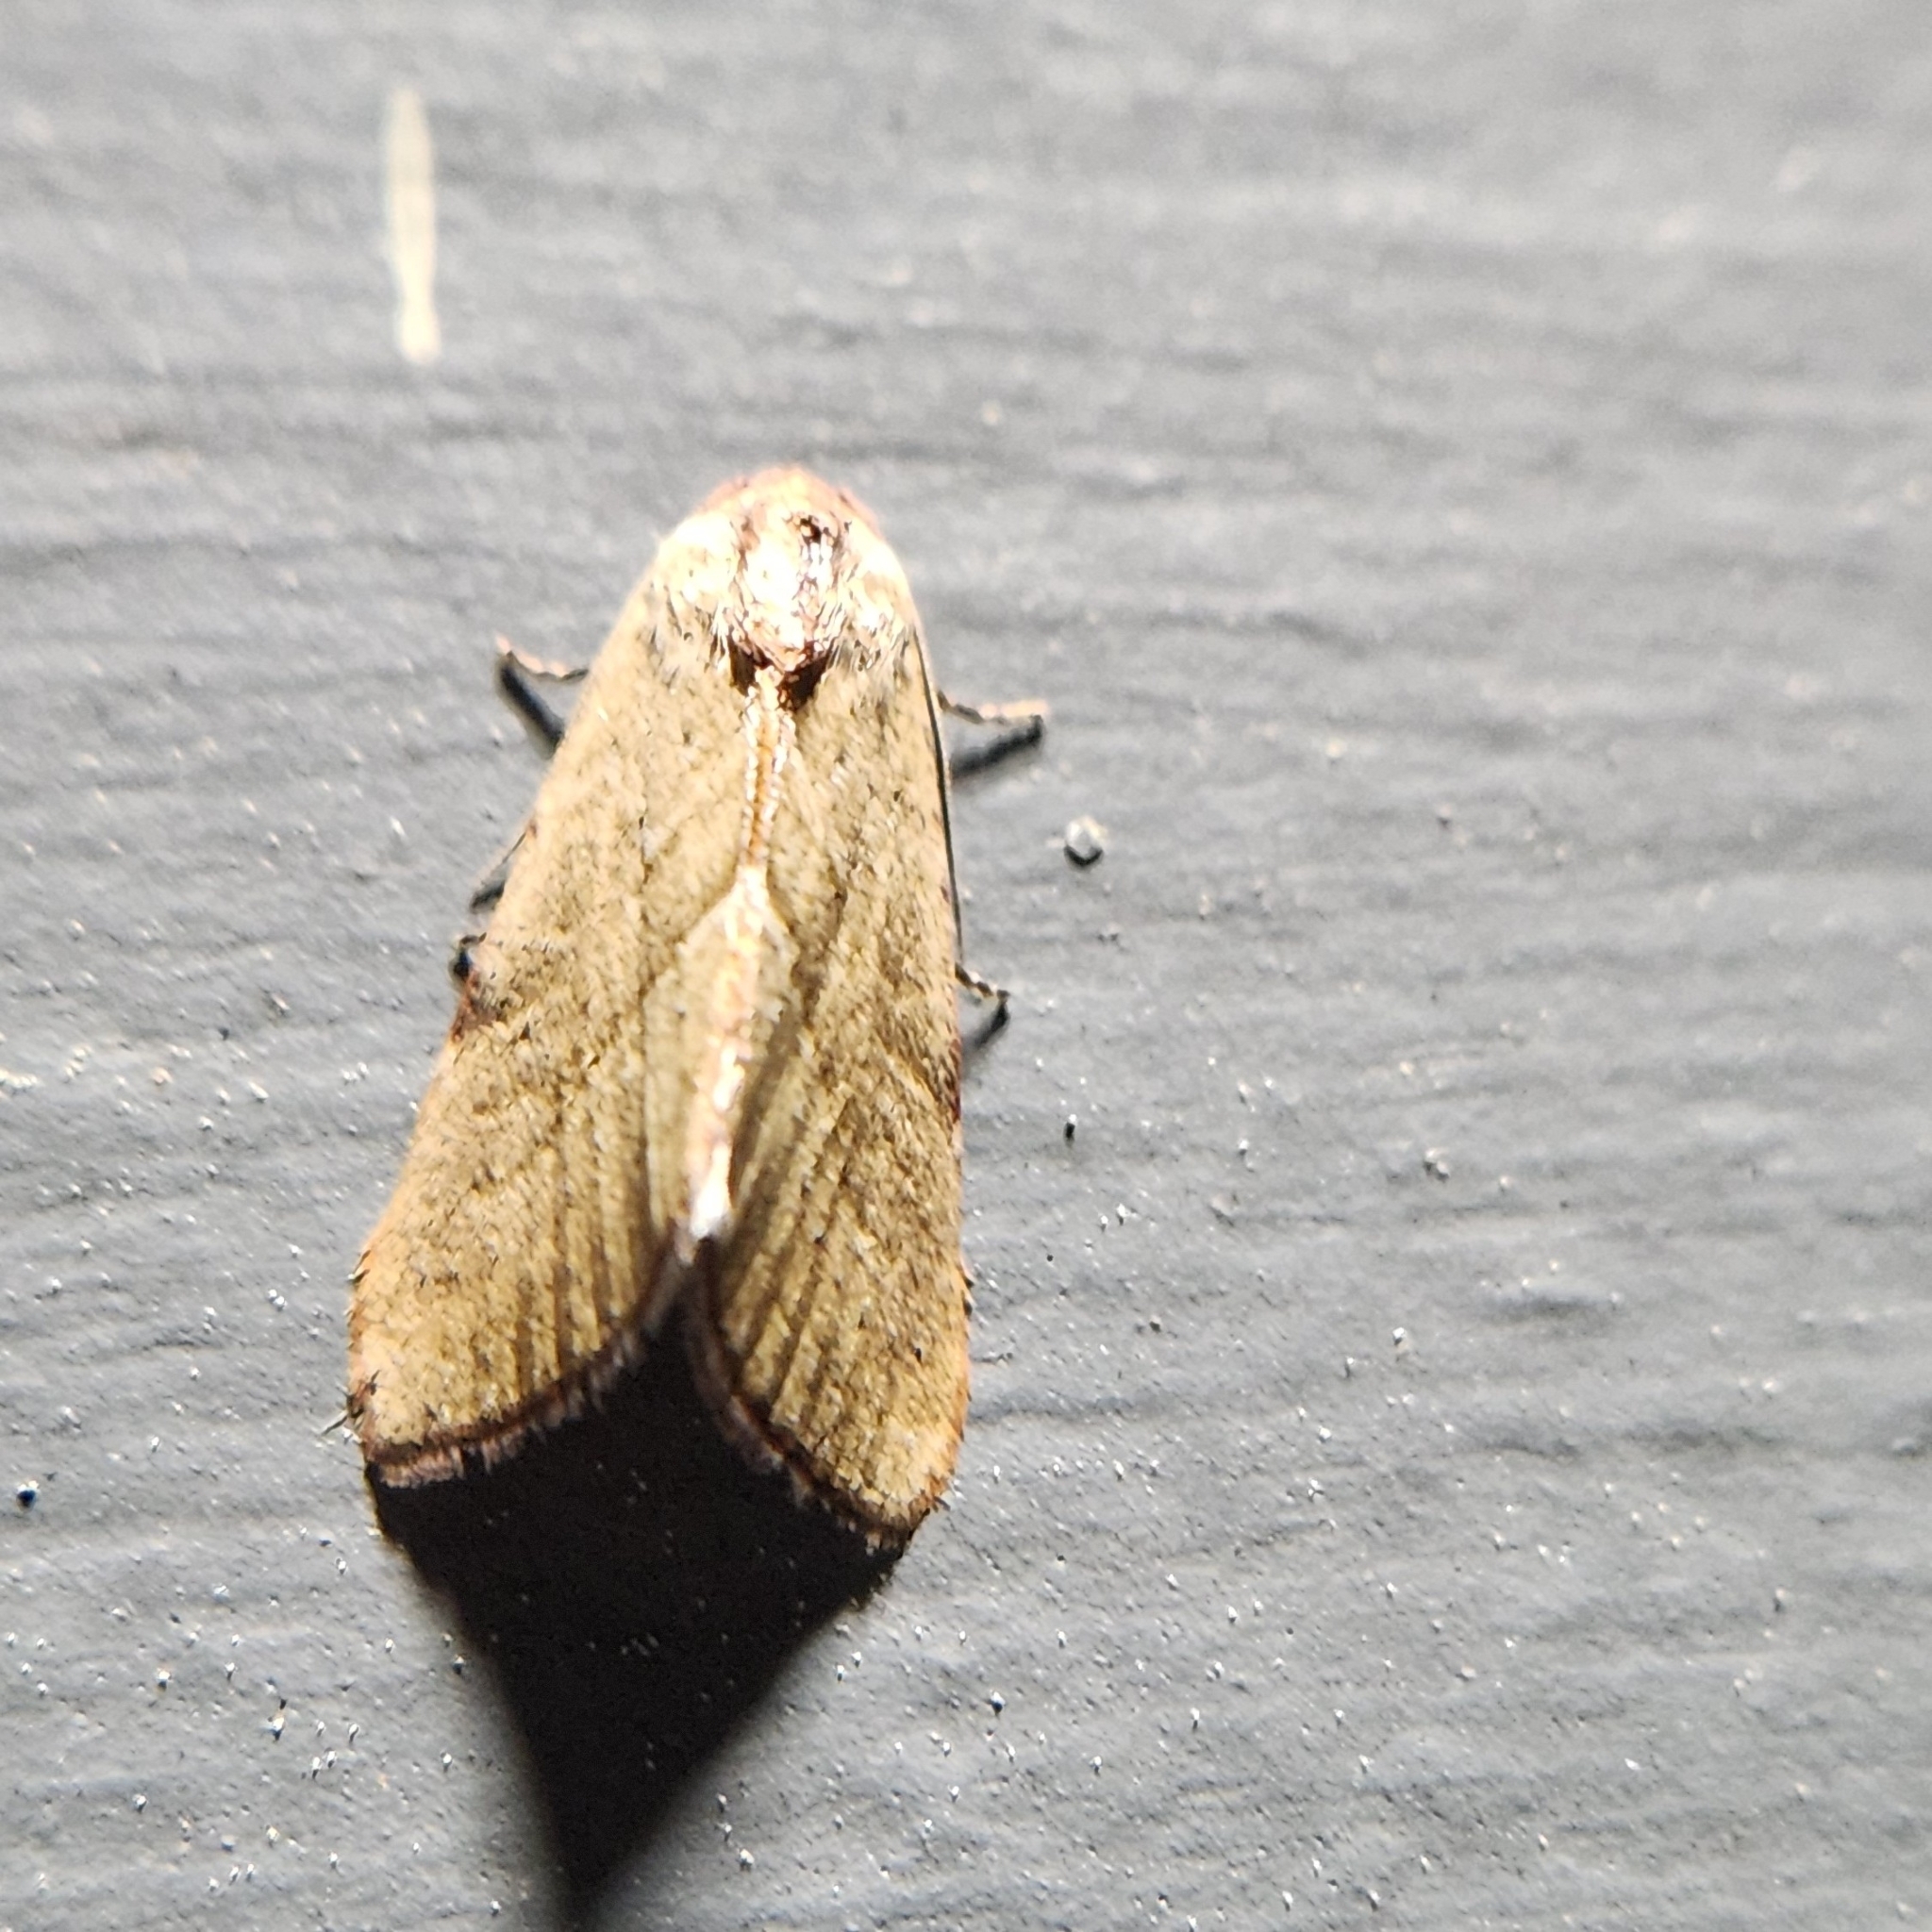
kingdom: Animalia
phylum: Arthropoda
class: Insecta
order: Lepidoptera
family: Noctuidae
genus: Galgula
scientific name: Galgula partita
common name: Wedgeling
